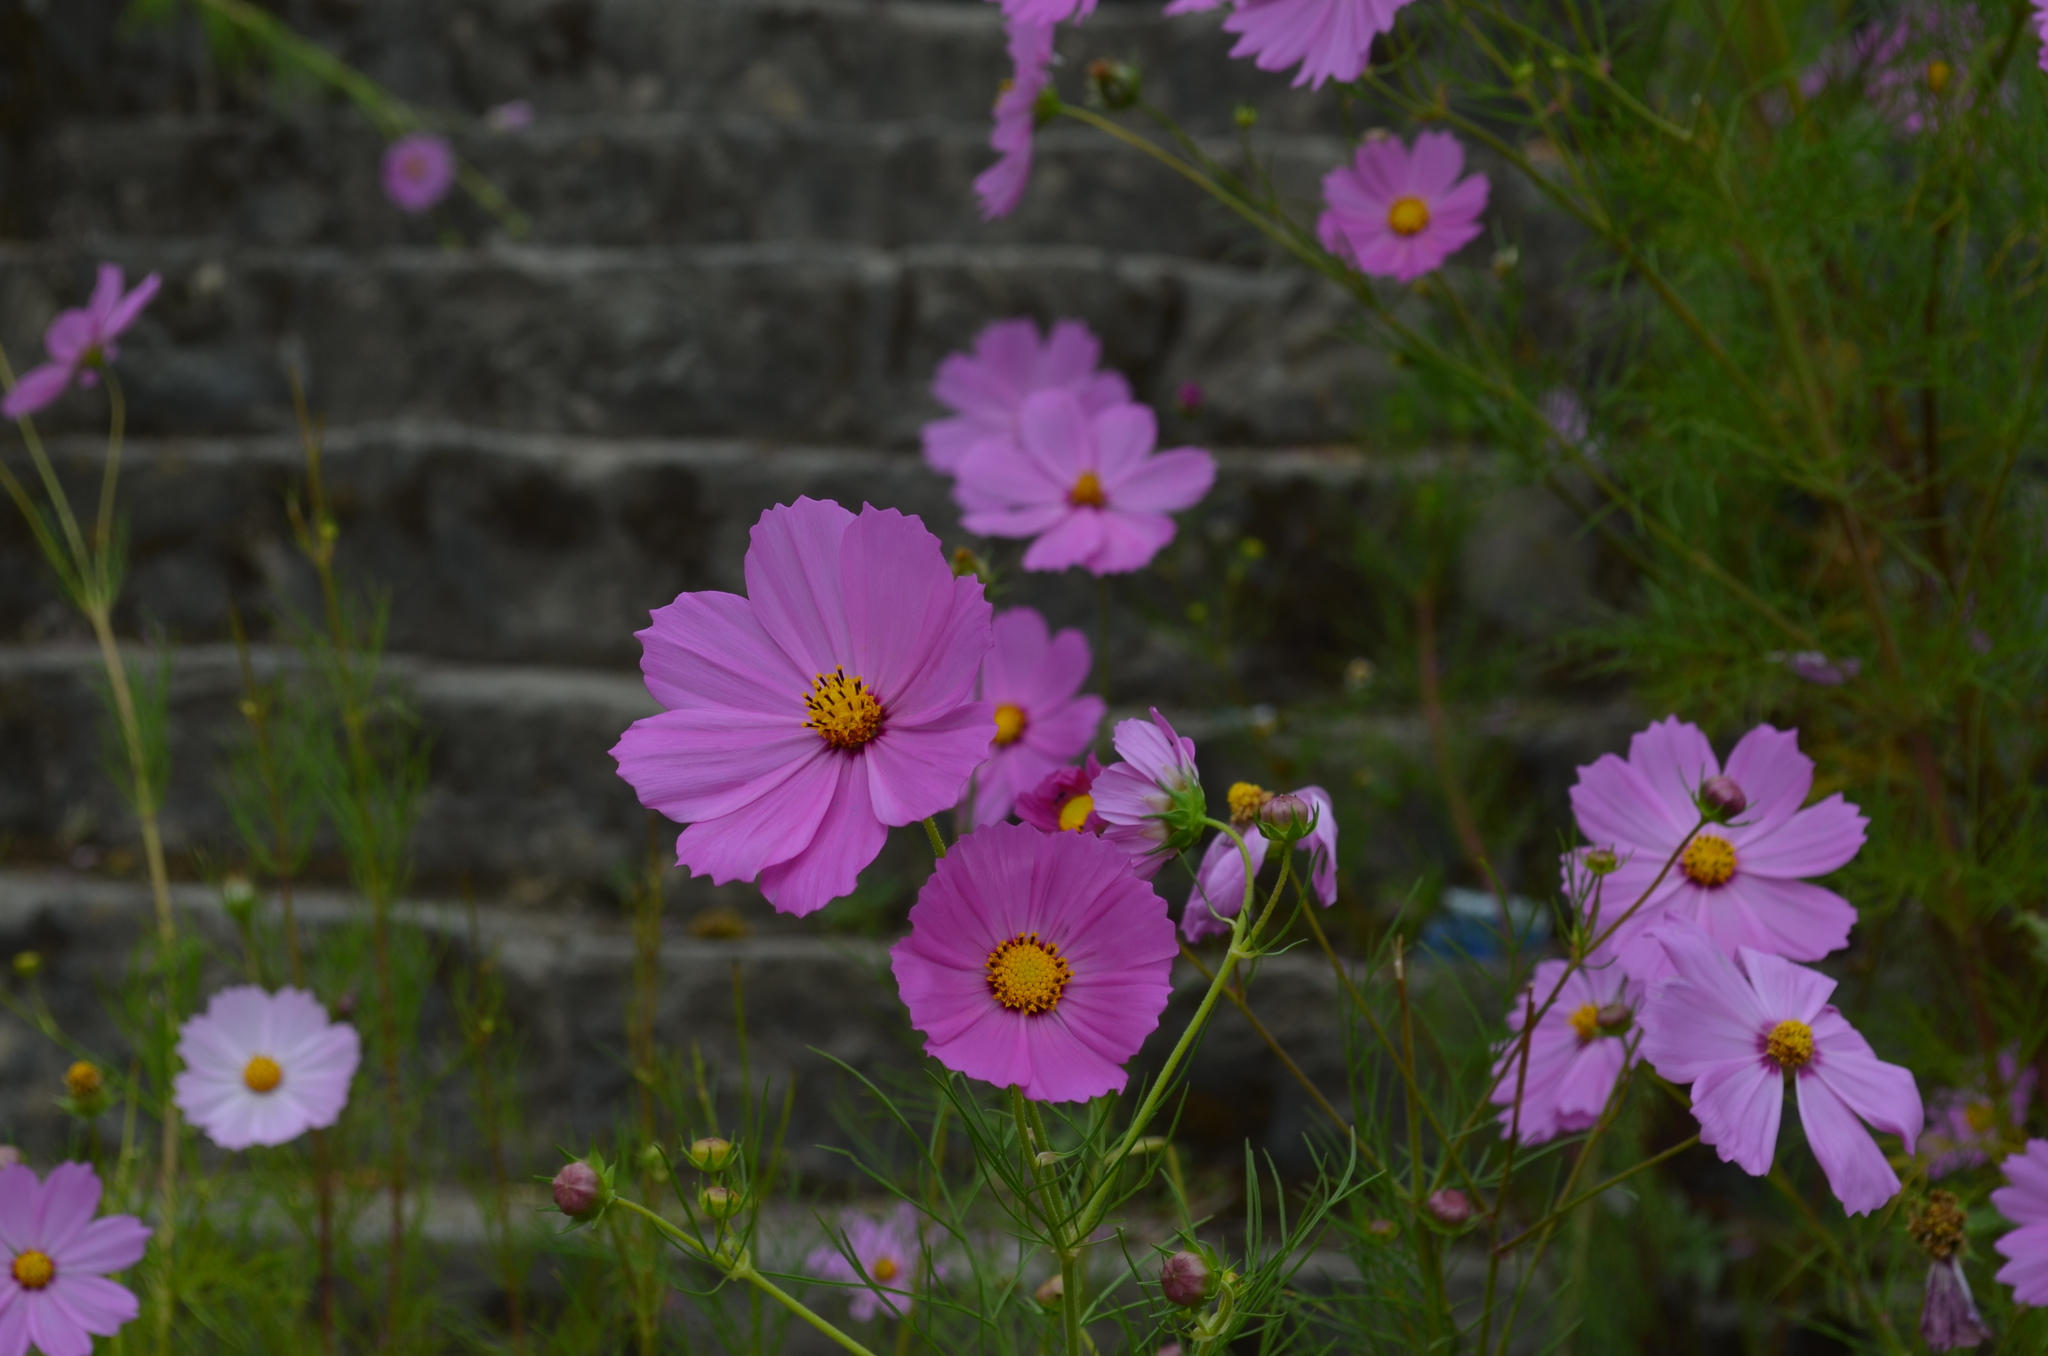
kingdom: Plantae
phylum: Tracheophyta
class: Magnoliopsida
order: Asterales
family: Asteraceae
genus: Cosmos
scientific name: Cosmos bipinnatus
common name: Garden cosmos
